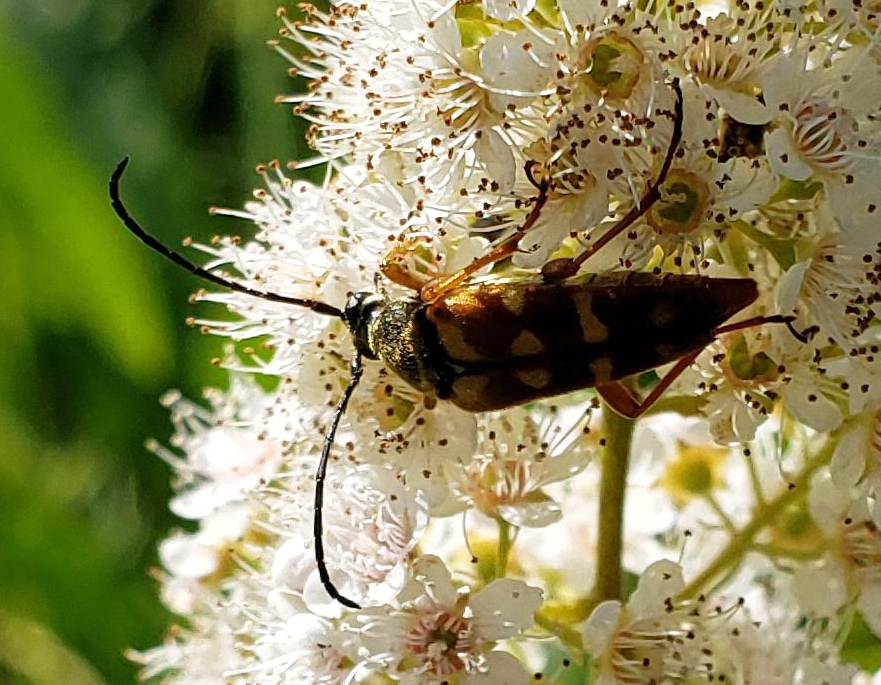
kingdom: Animalia
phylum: Arthropoda
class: Insecta
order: Coleoptera
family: Cerambycidae
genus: Typocerus
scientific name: Typocerus velutinus
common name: Banded longhorn beetle
